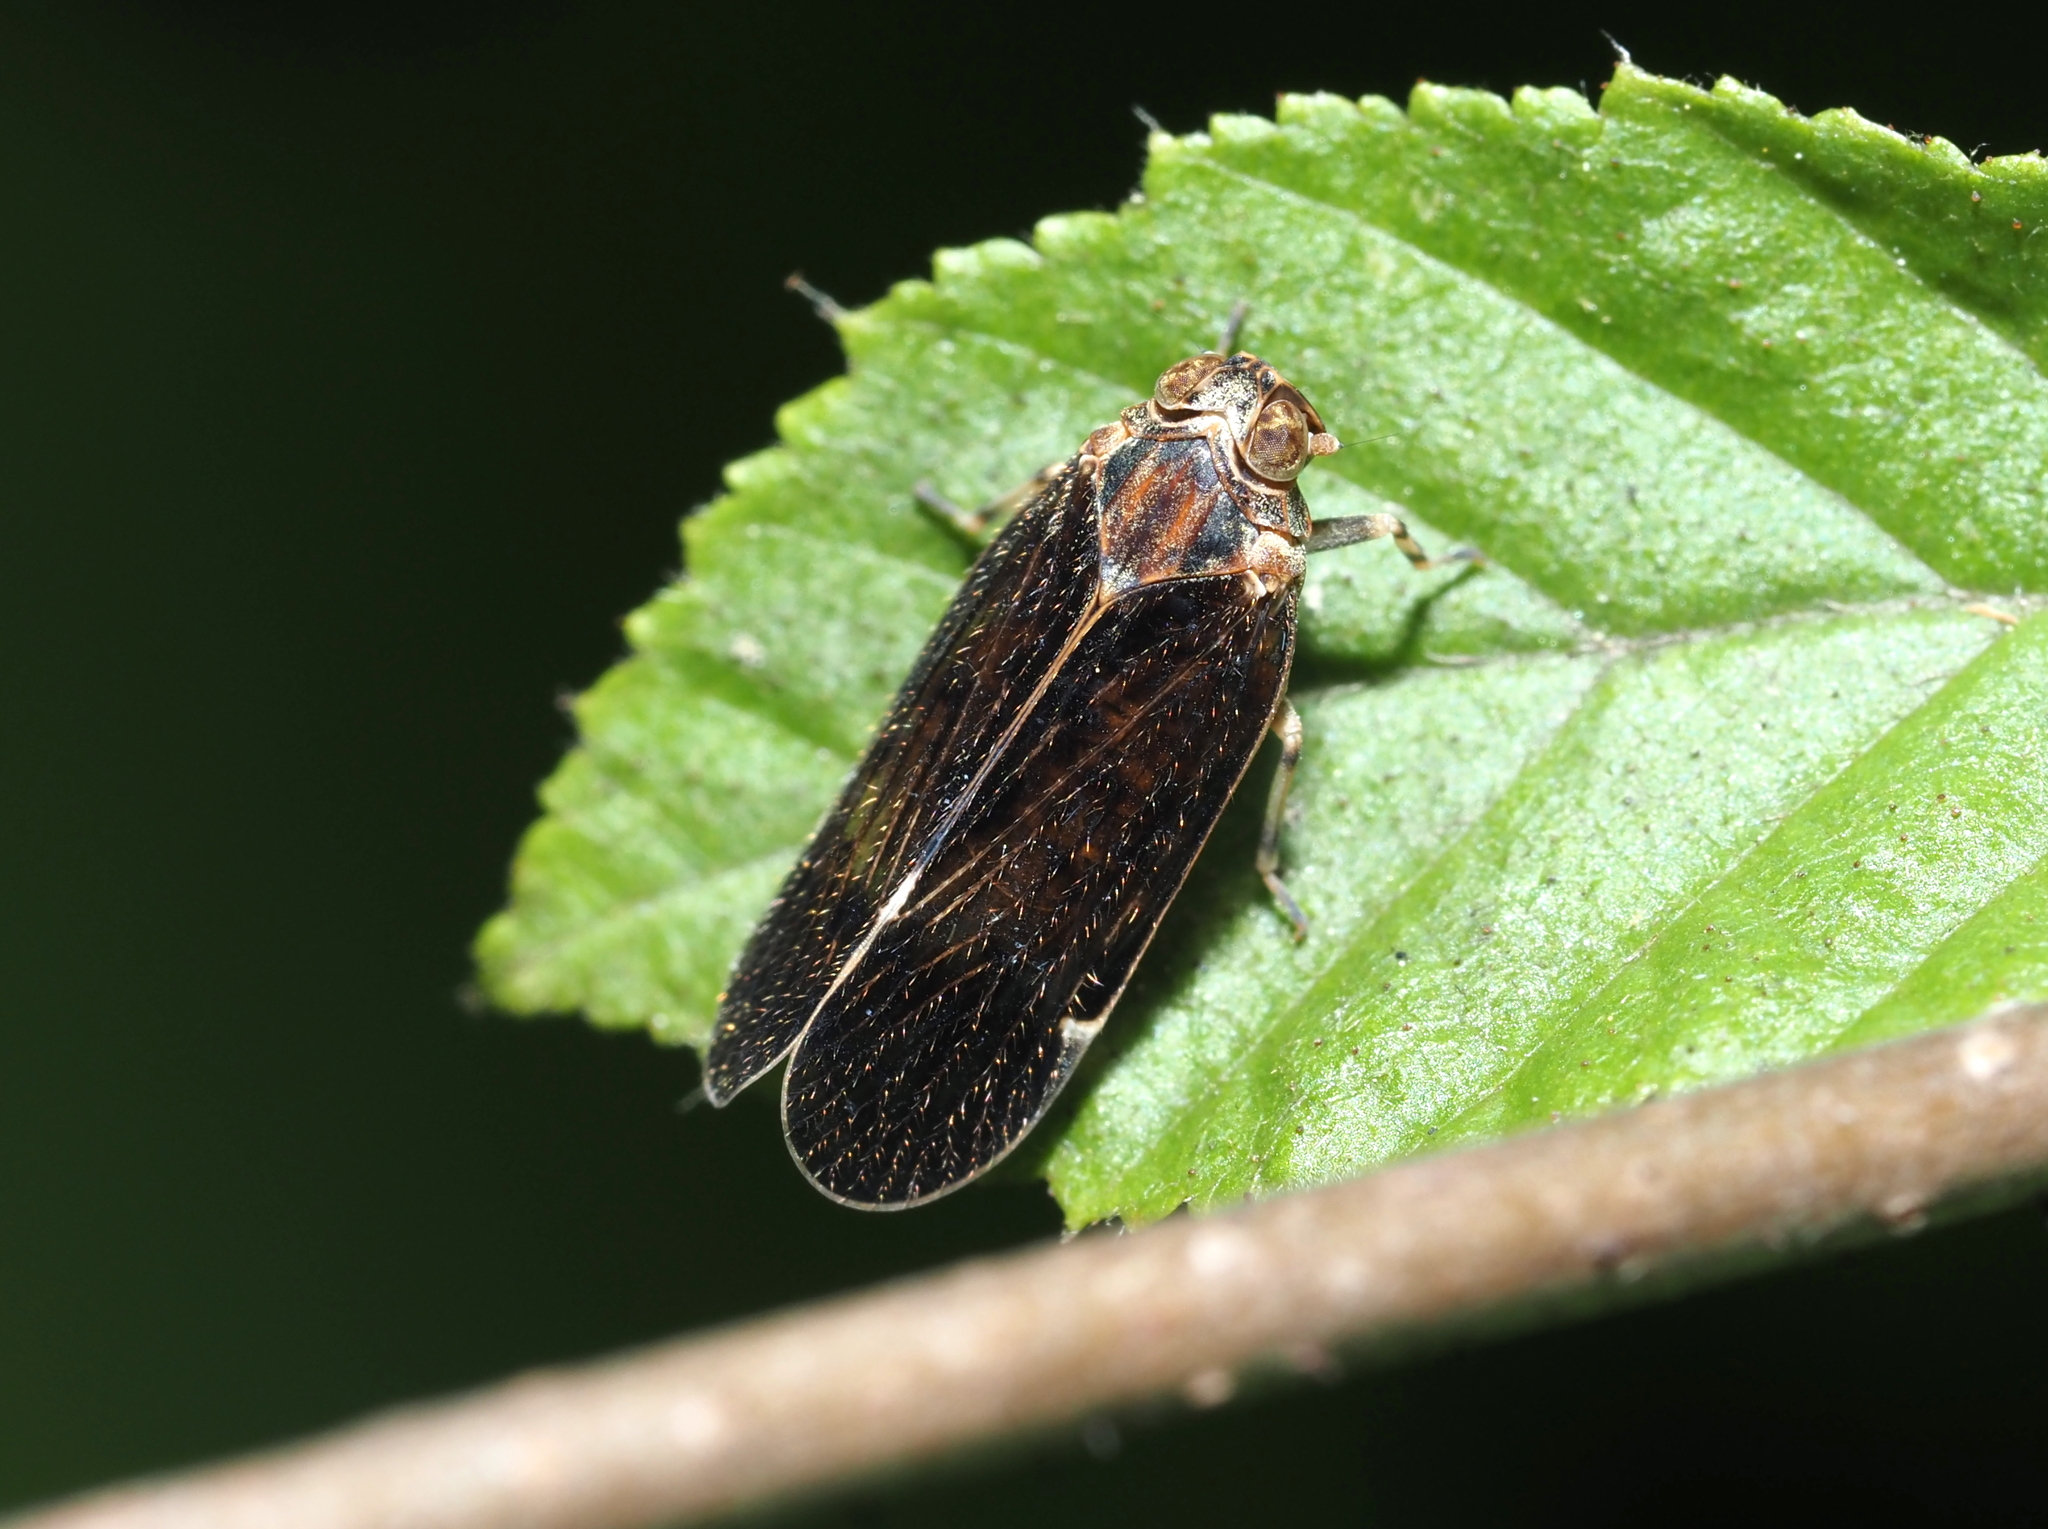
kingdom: Animalia
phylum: Arthropoda
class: Insecta
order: Hemiptera
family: Cixiidae
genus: Pentastiridius
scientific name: Pentastiridius cinnamoneus
